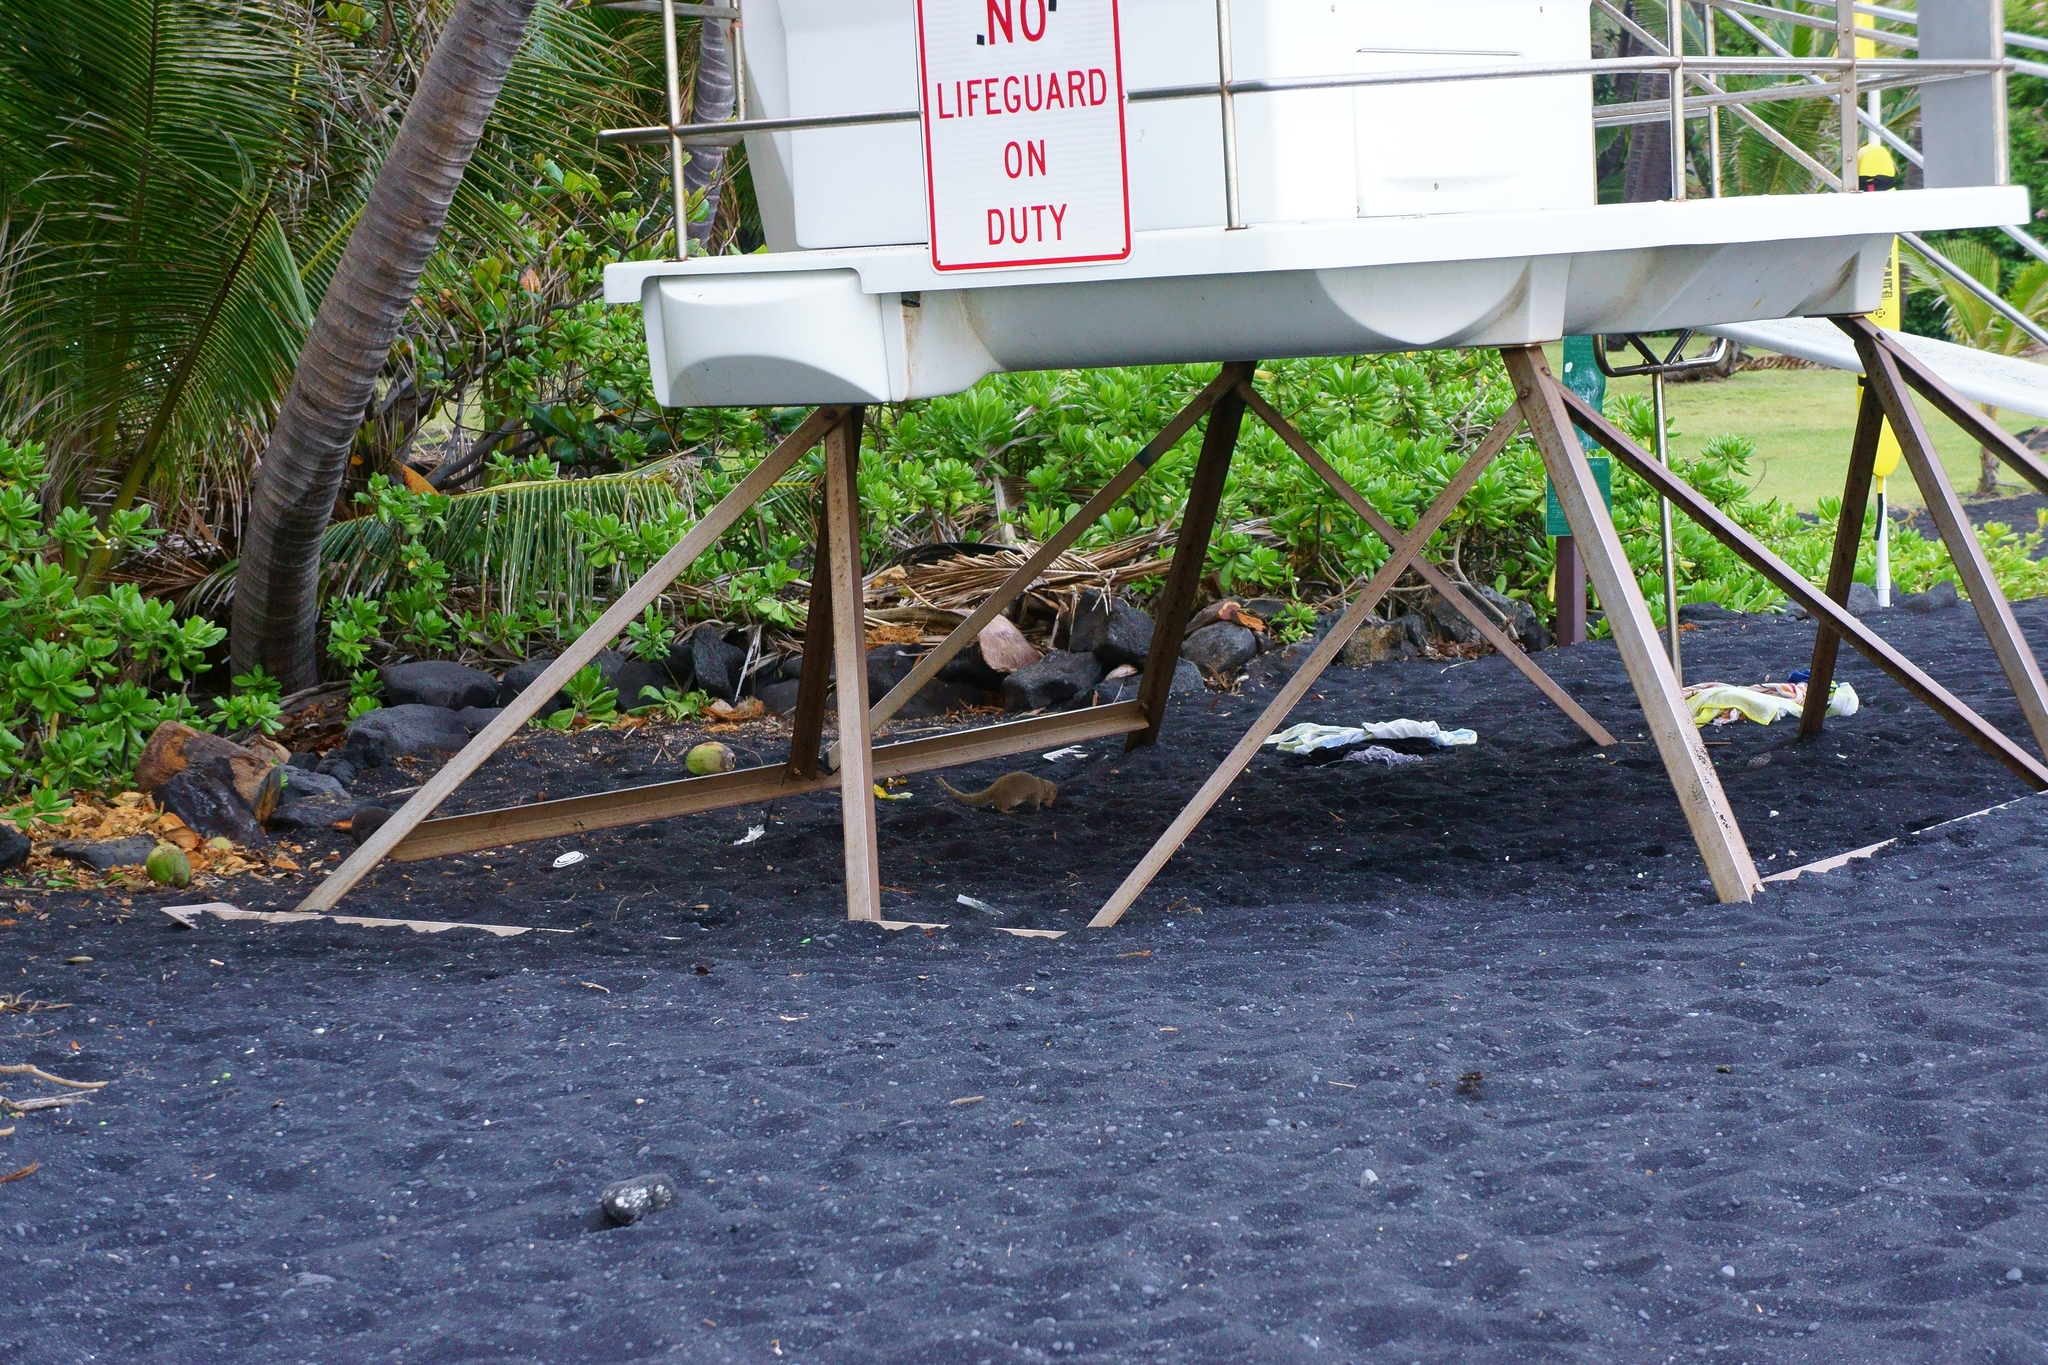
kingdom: Animalia
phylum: Chordata
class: Mammalia
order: Carnivora
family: Herpestidae
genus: Herpestes
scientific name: Herpestes javanicus
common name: Small asian mongoose
